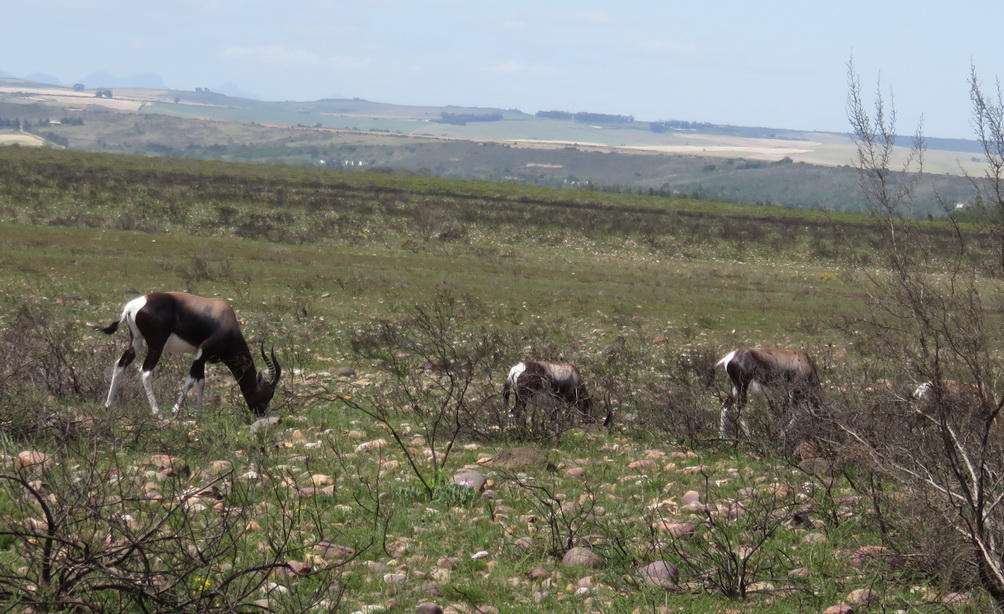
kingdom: Animalia
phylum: Chordata
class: Mammalia
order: Artiodactyla
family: Bovidae
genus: Damaliscus
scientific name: Damaliscus pygargus
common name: Bontebok
